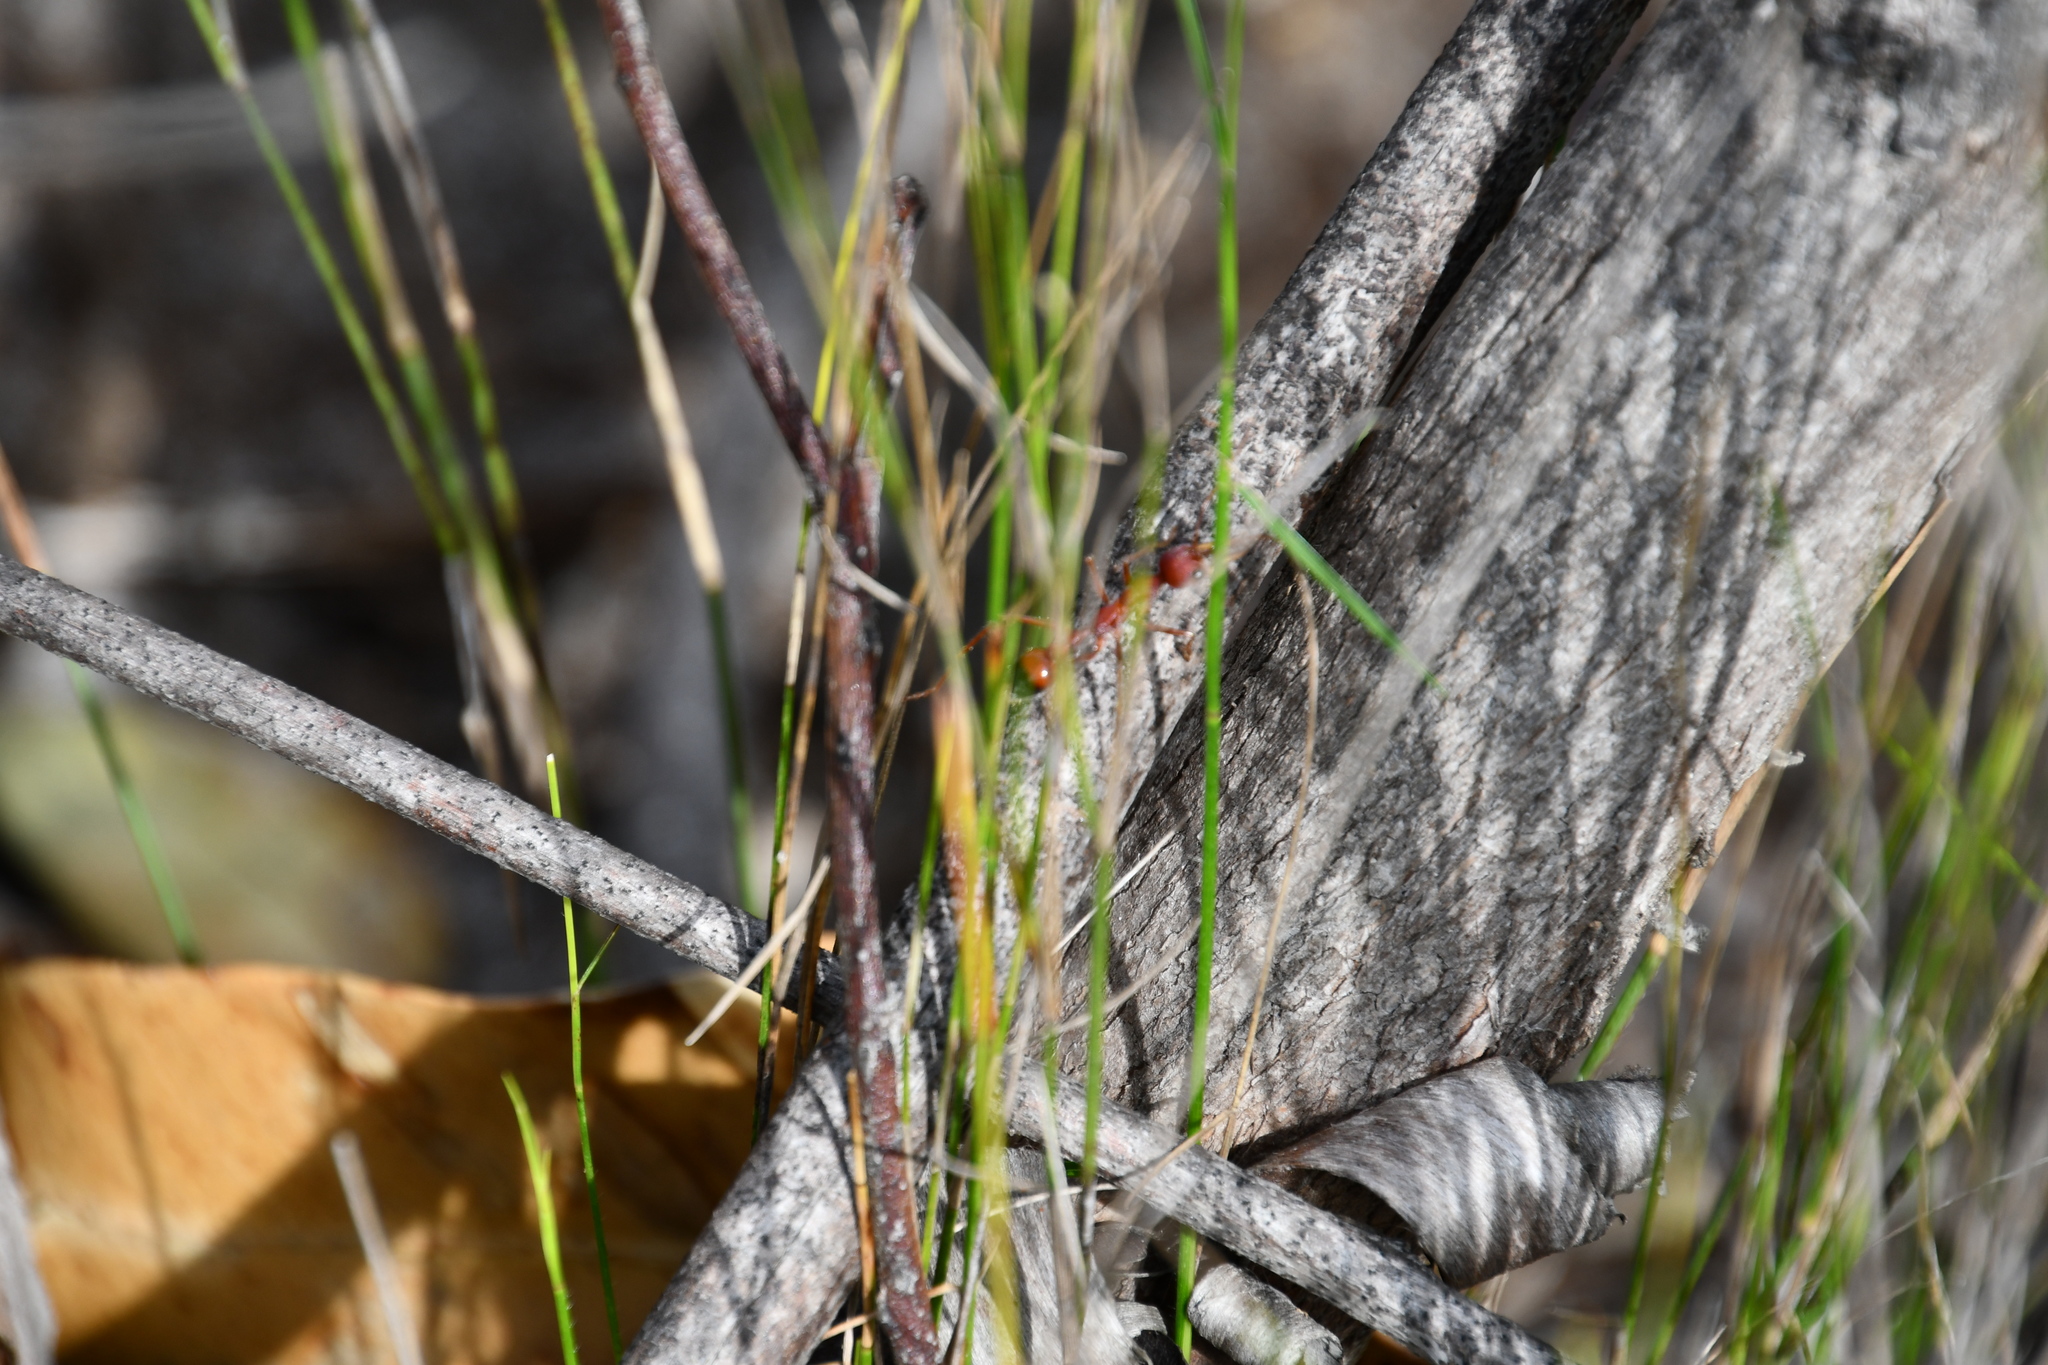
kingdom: Animalia
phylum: Arthropoda
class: Insecta
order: Hymenoptera
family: Formicidae
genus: Myrmecia
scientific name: Myrmecia gulosa
